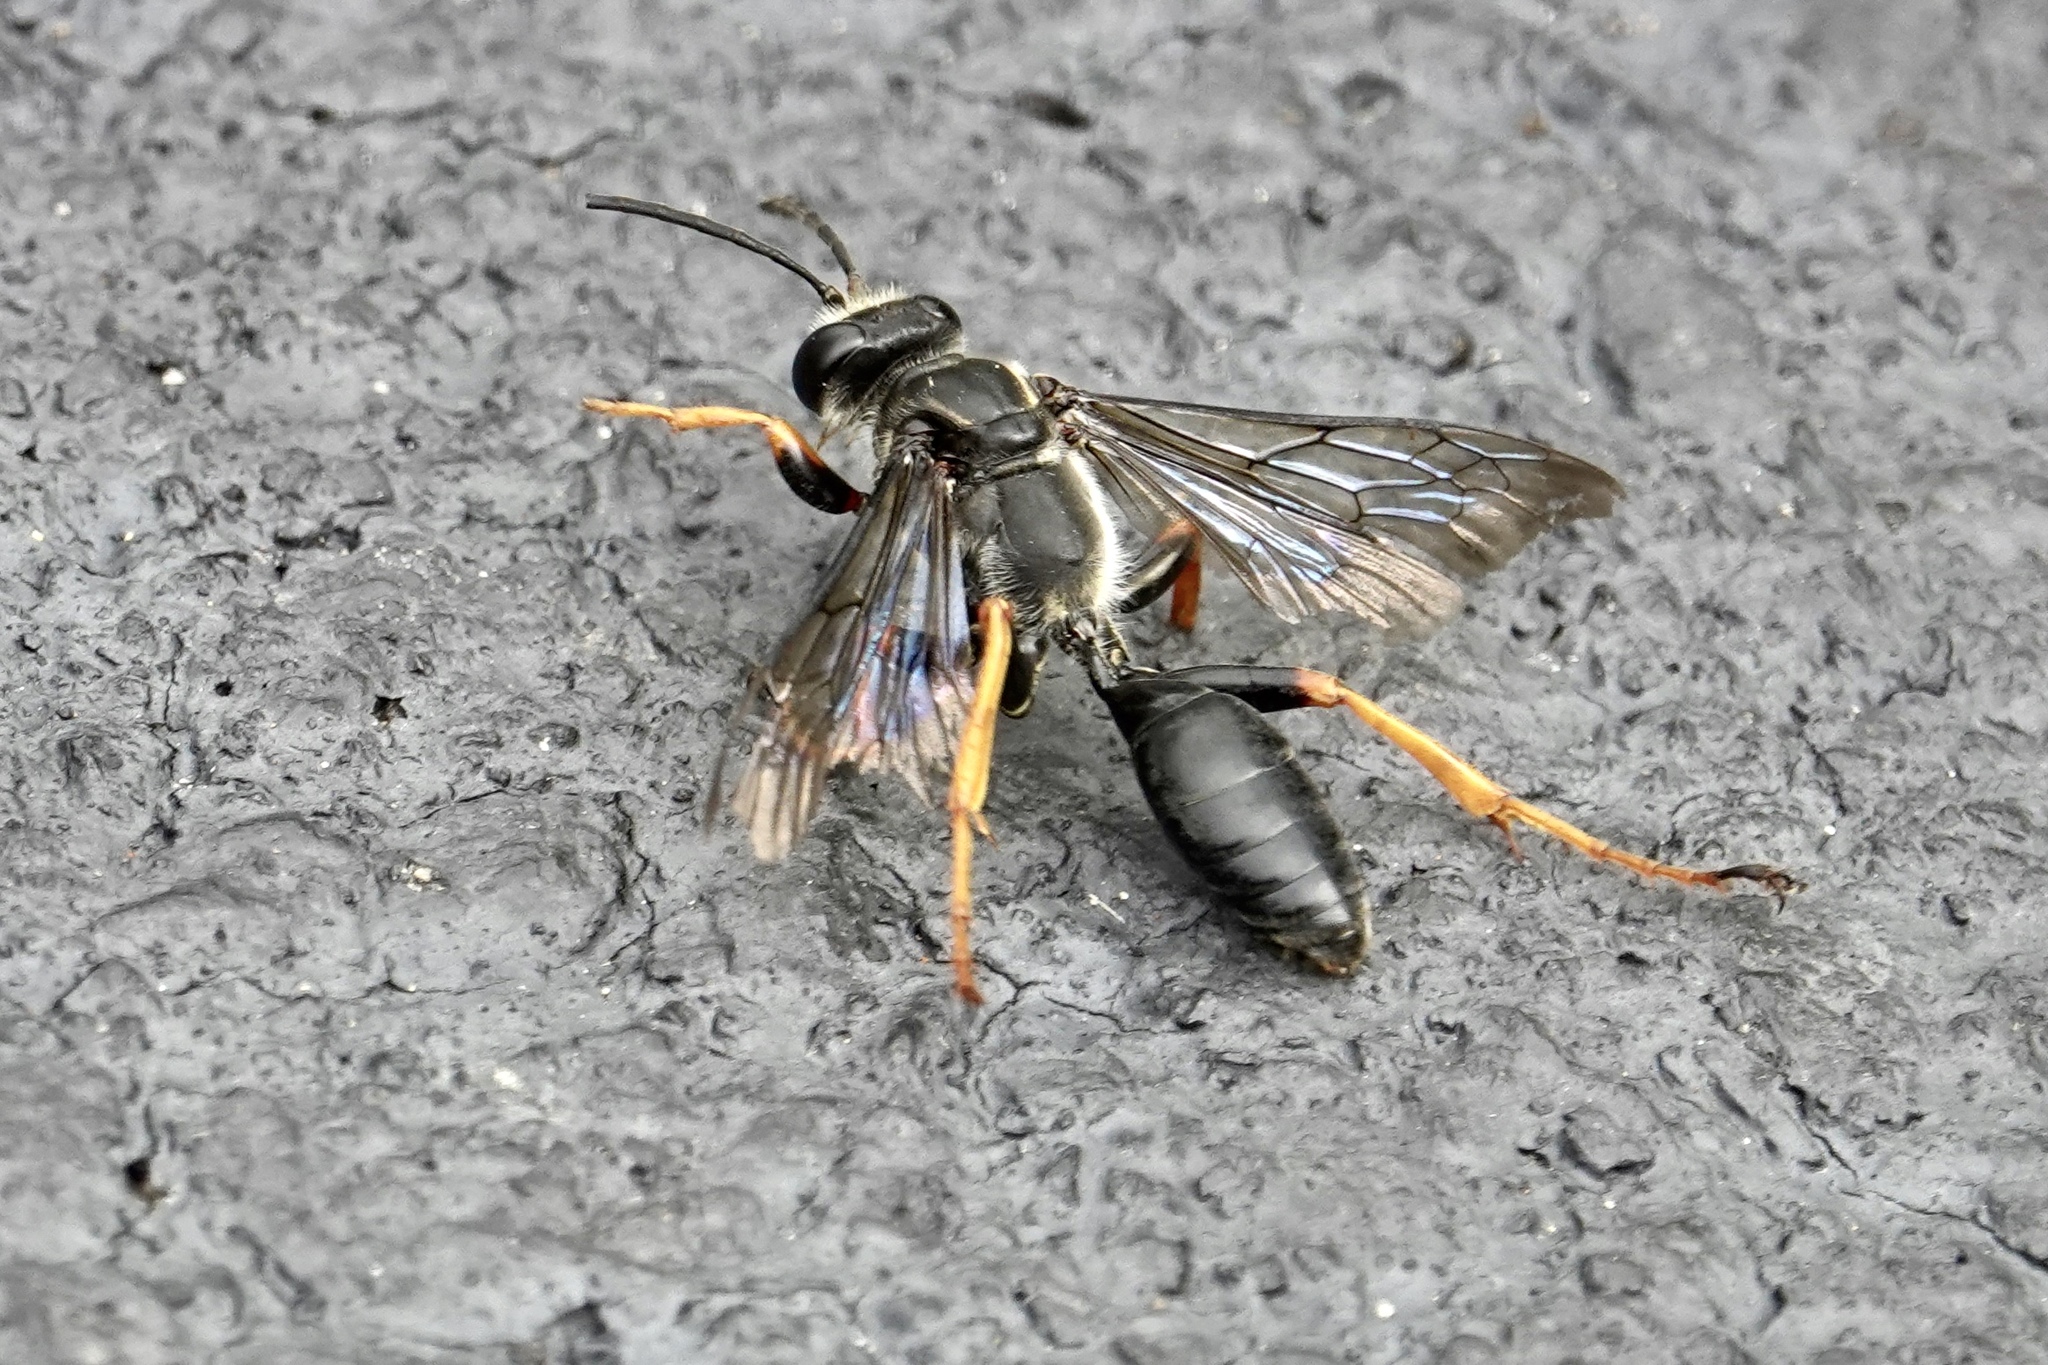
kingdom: Animalia
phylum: Arthropoda
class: Insecta
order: Hymenoptera
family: Sphecidae
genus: Sphex
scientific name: Sphex nudus
